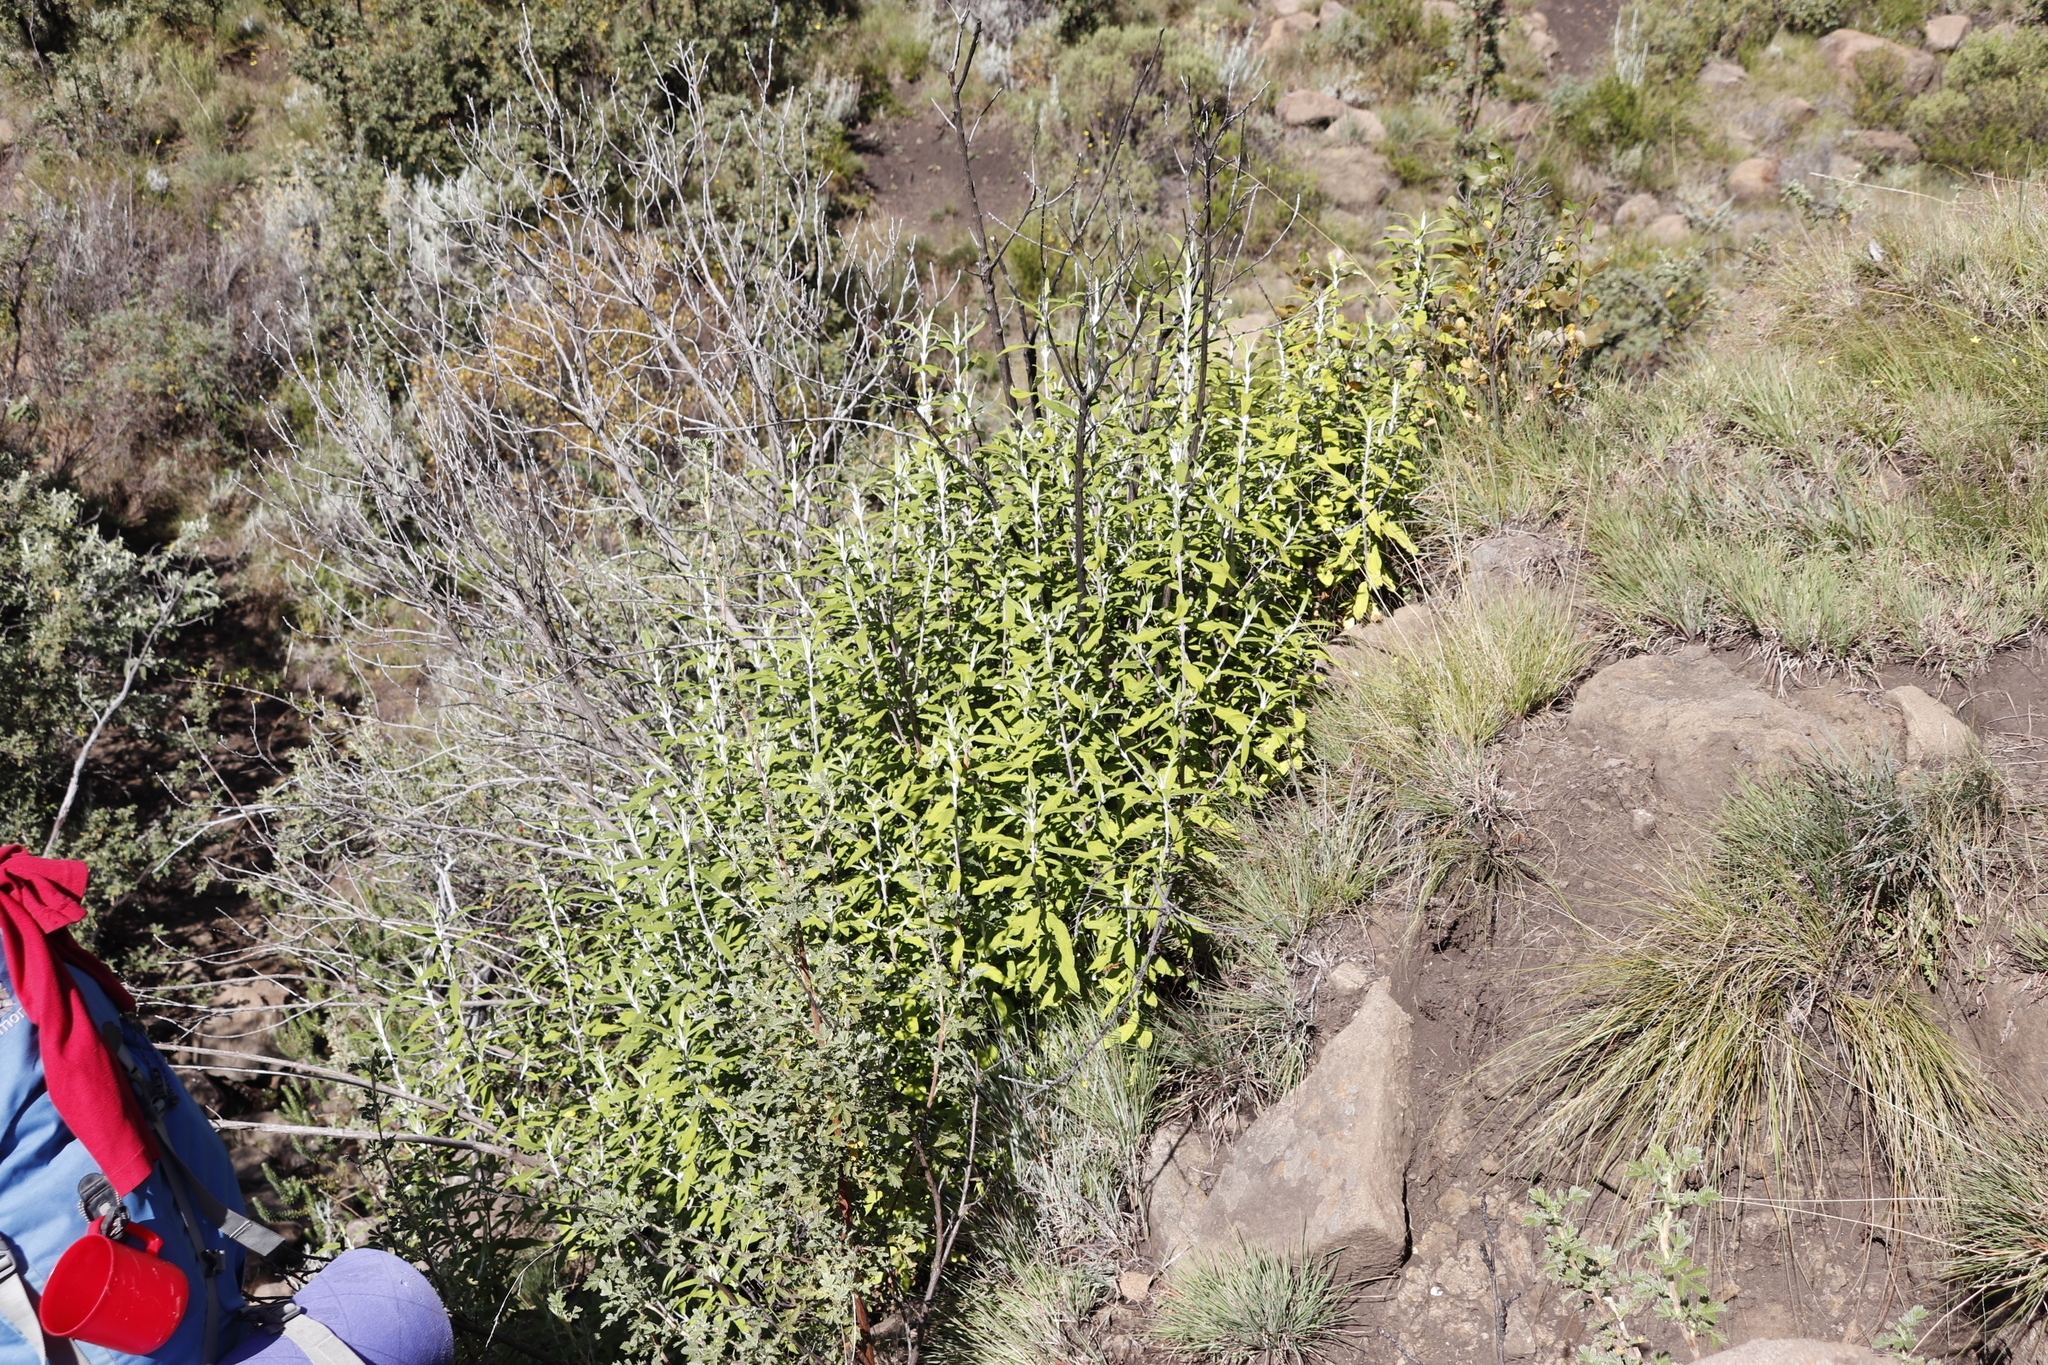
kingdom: Plantae
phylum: Tracheophyta
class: Magnoliopsida
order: Lamiales
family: Scrophulariaceae
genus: Buddleja
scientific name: Buddleja loricata
